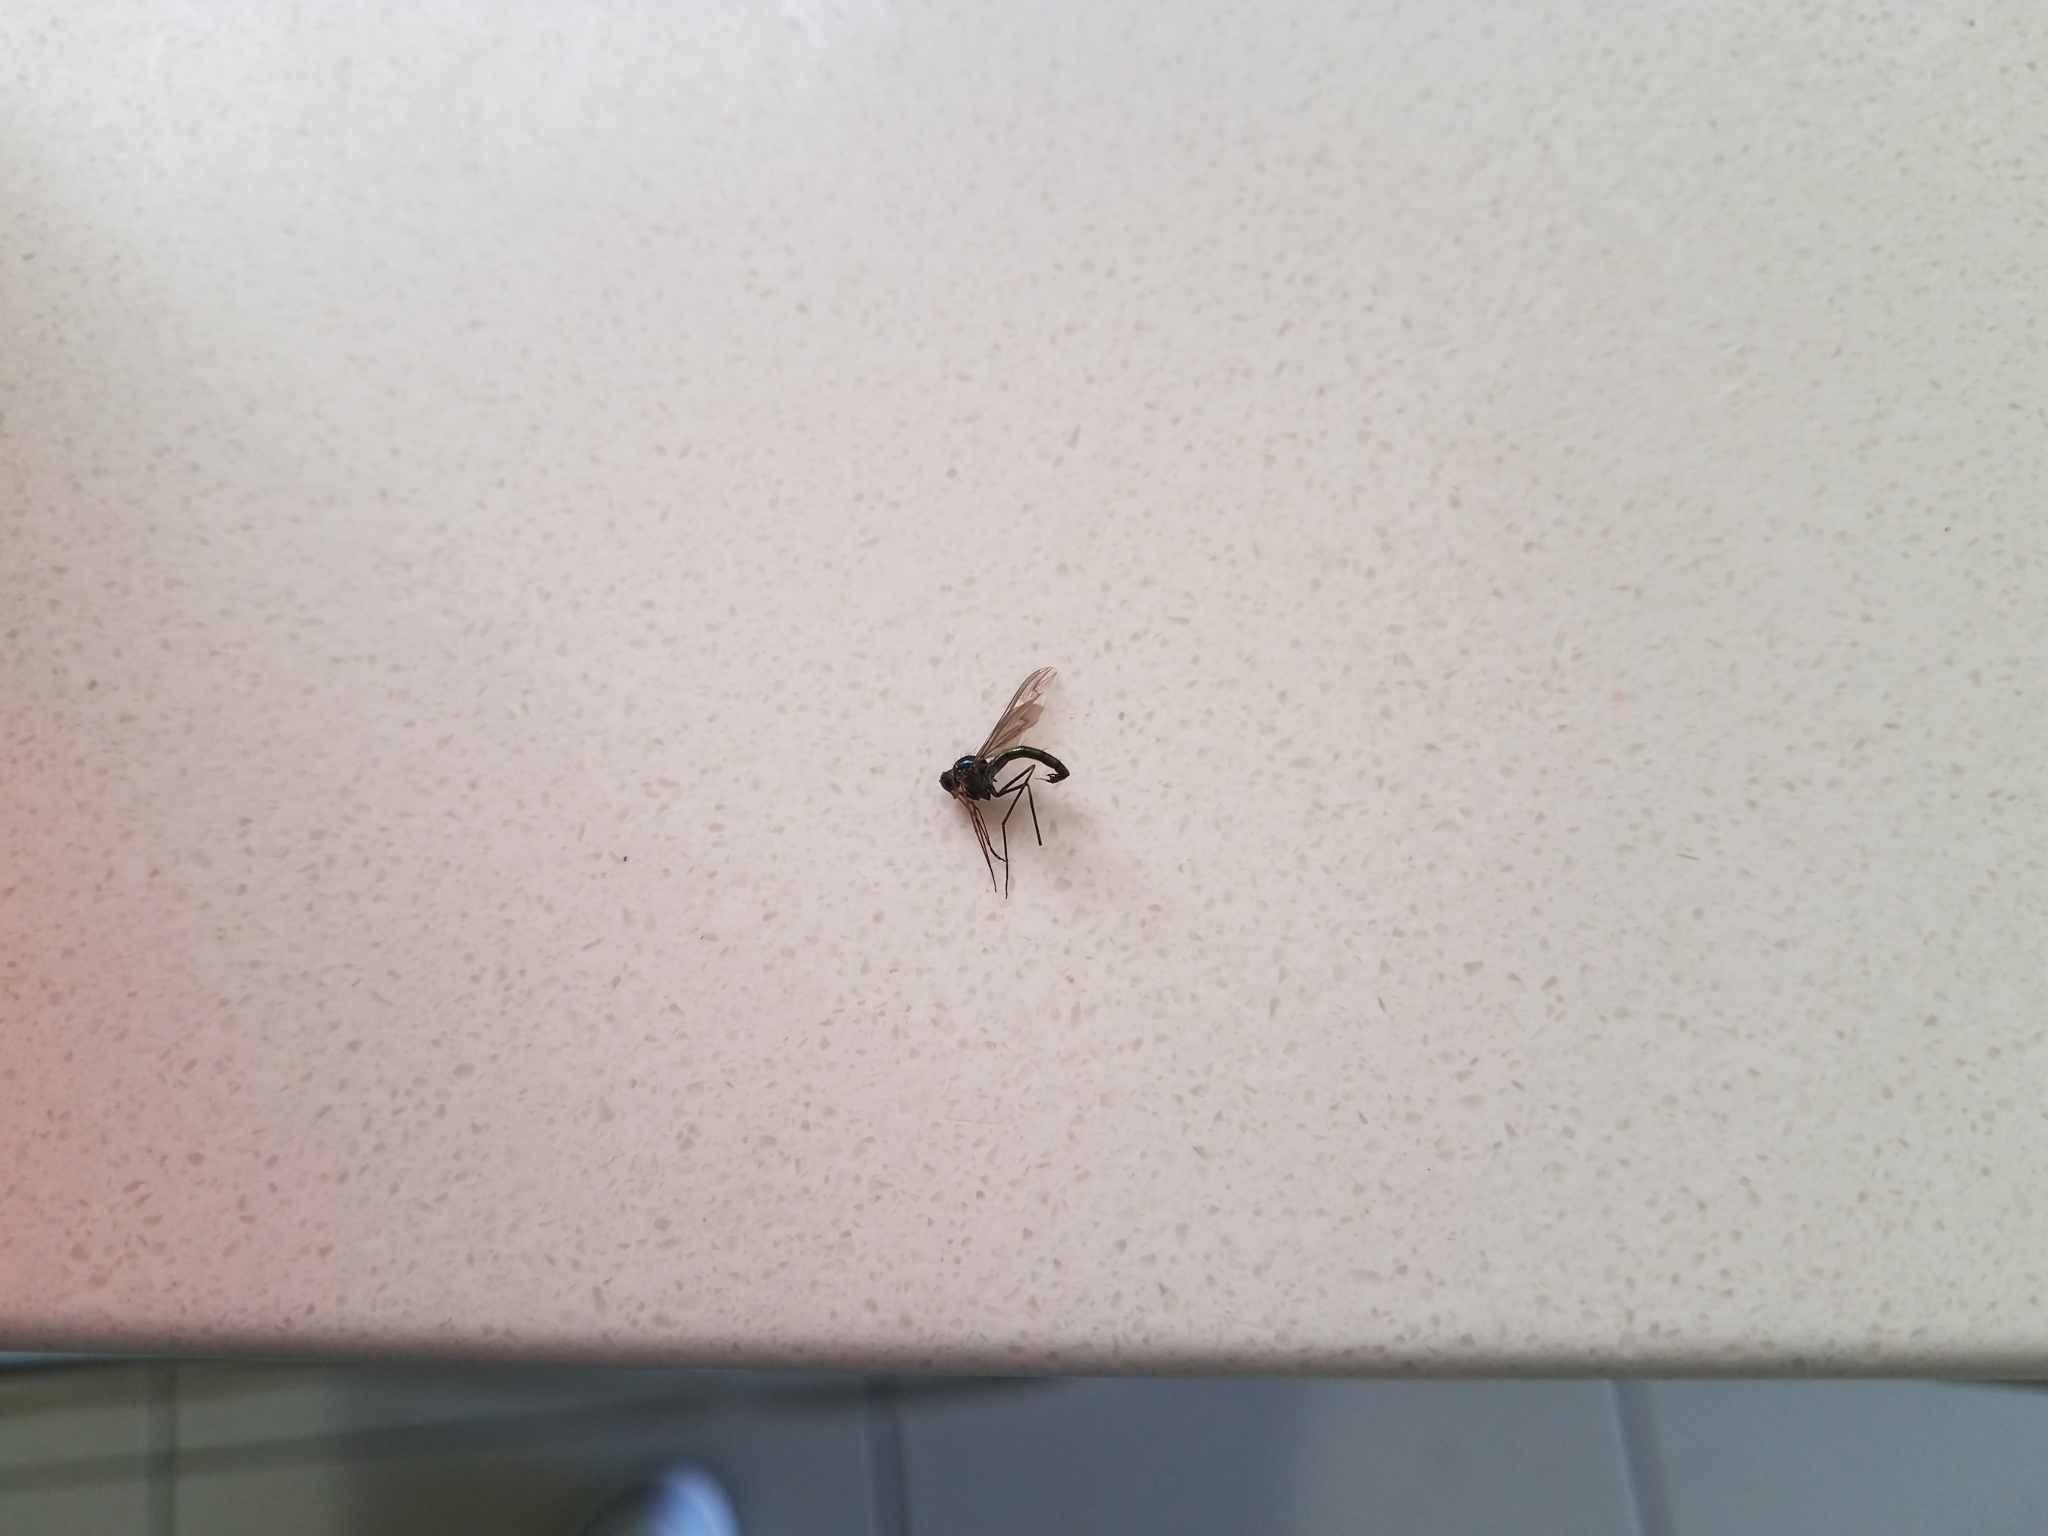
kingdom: Animalia
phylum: Arthropoda
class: Insecta
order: Diptera
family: Dolichopodidae
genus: Heteropsilopus
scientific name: Heteropsilopus cingulipes
